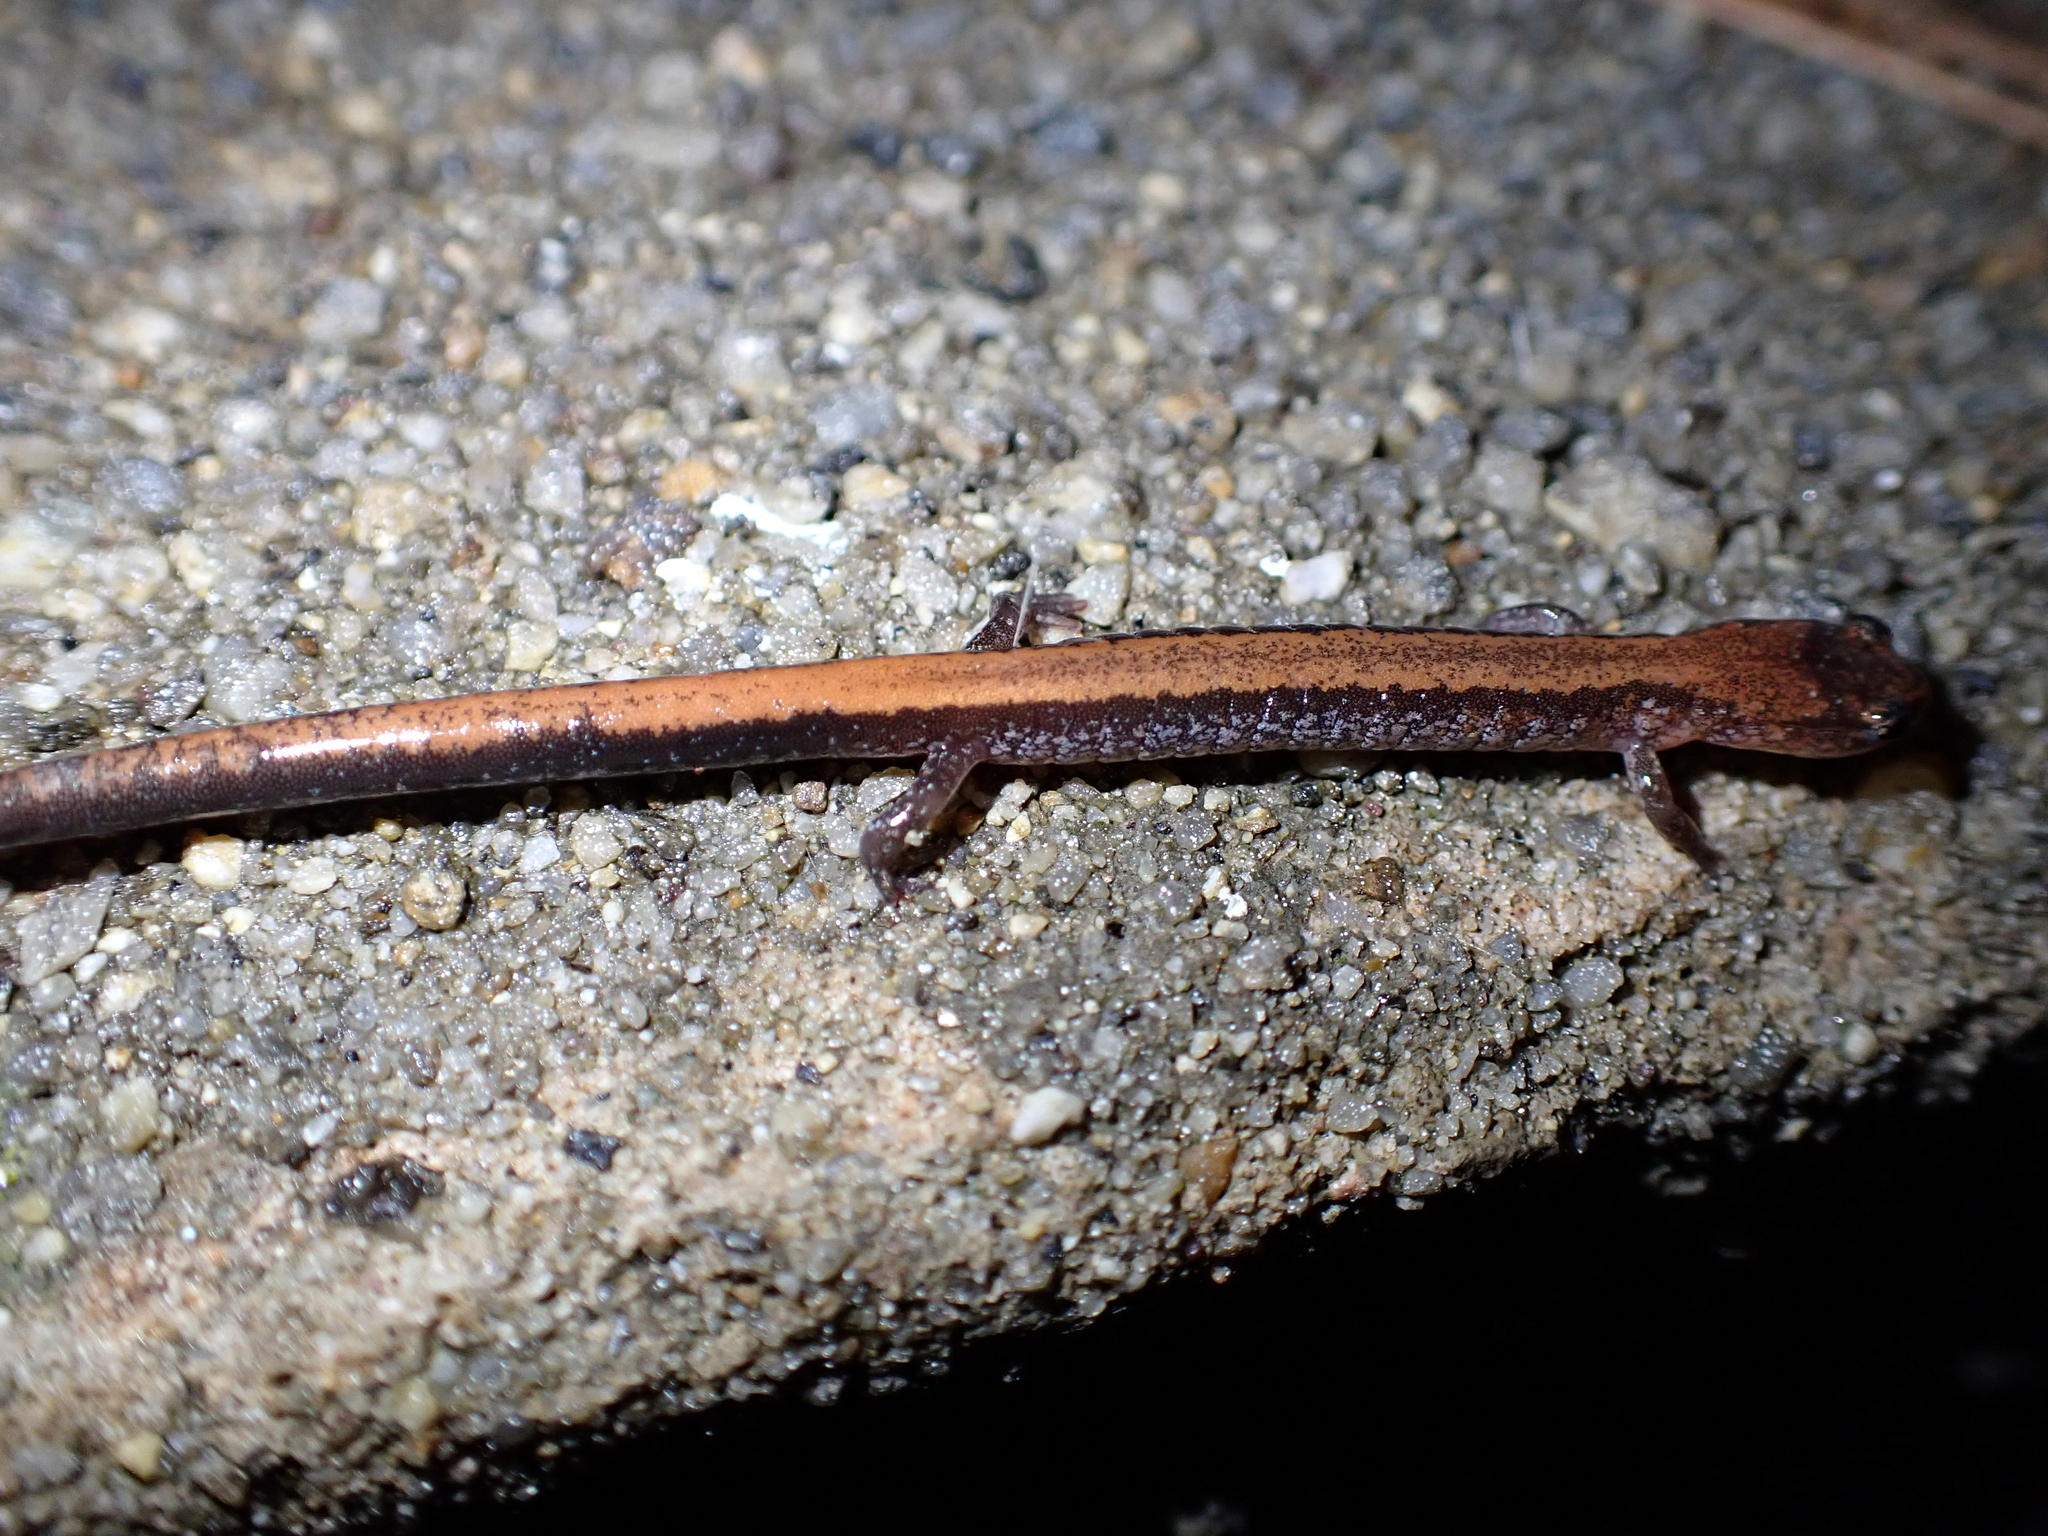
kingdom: Animalia
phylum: Chordata
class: Amphibia
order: Caudata
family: Plethodontidae
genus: Plethodon
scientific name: Plethodon cinereus
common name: Redback salamander
